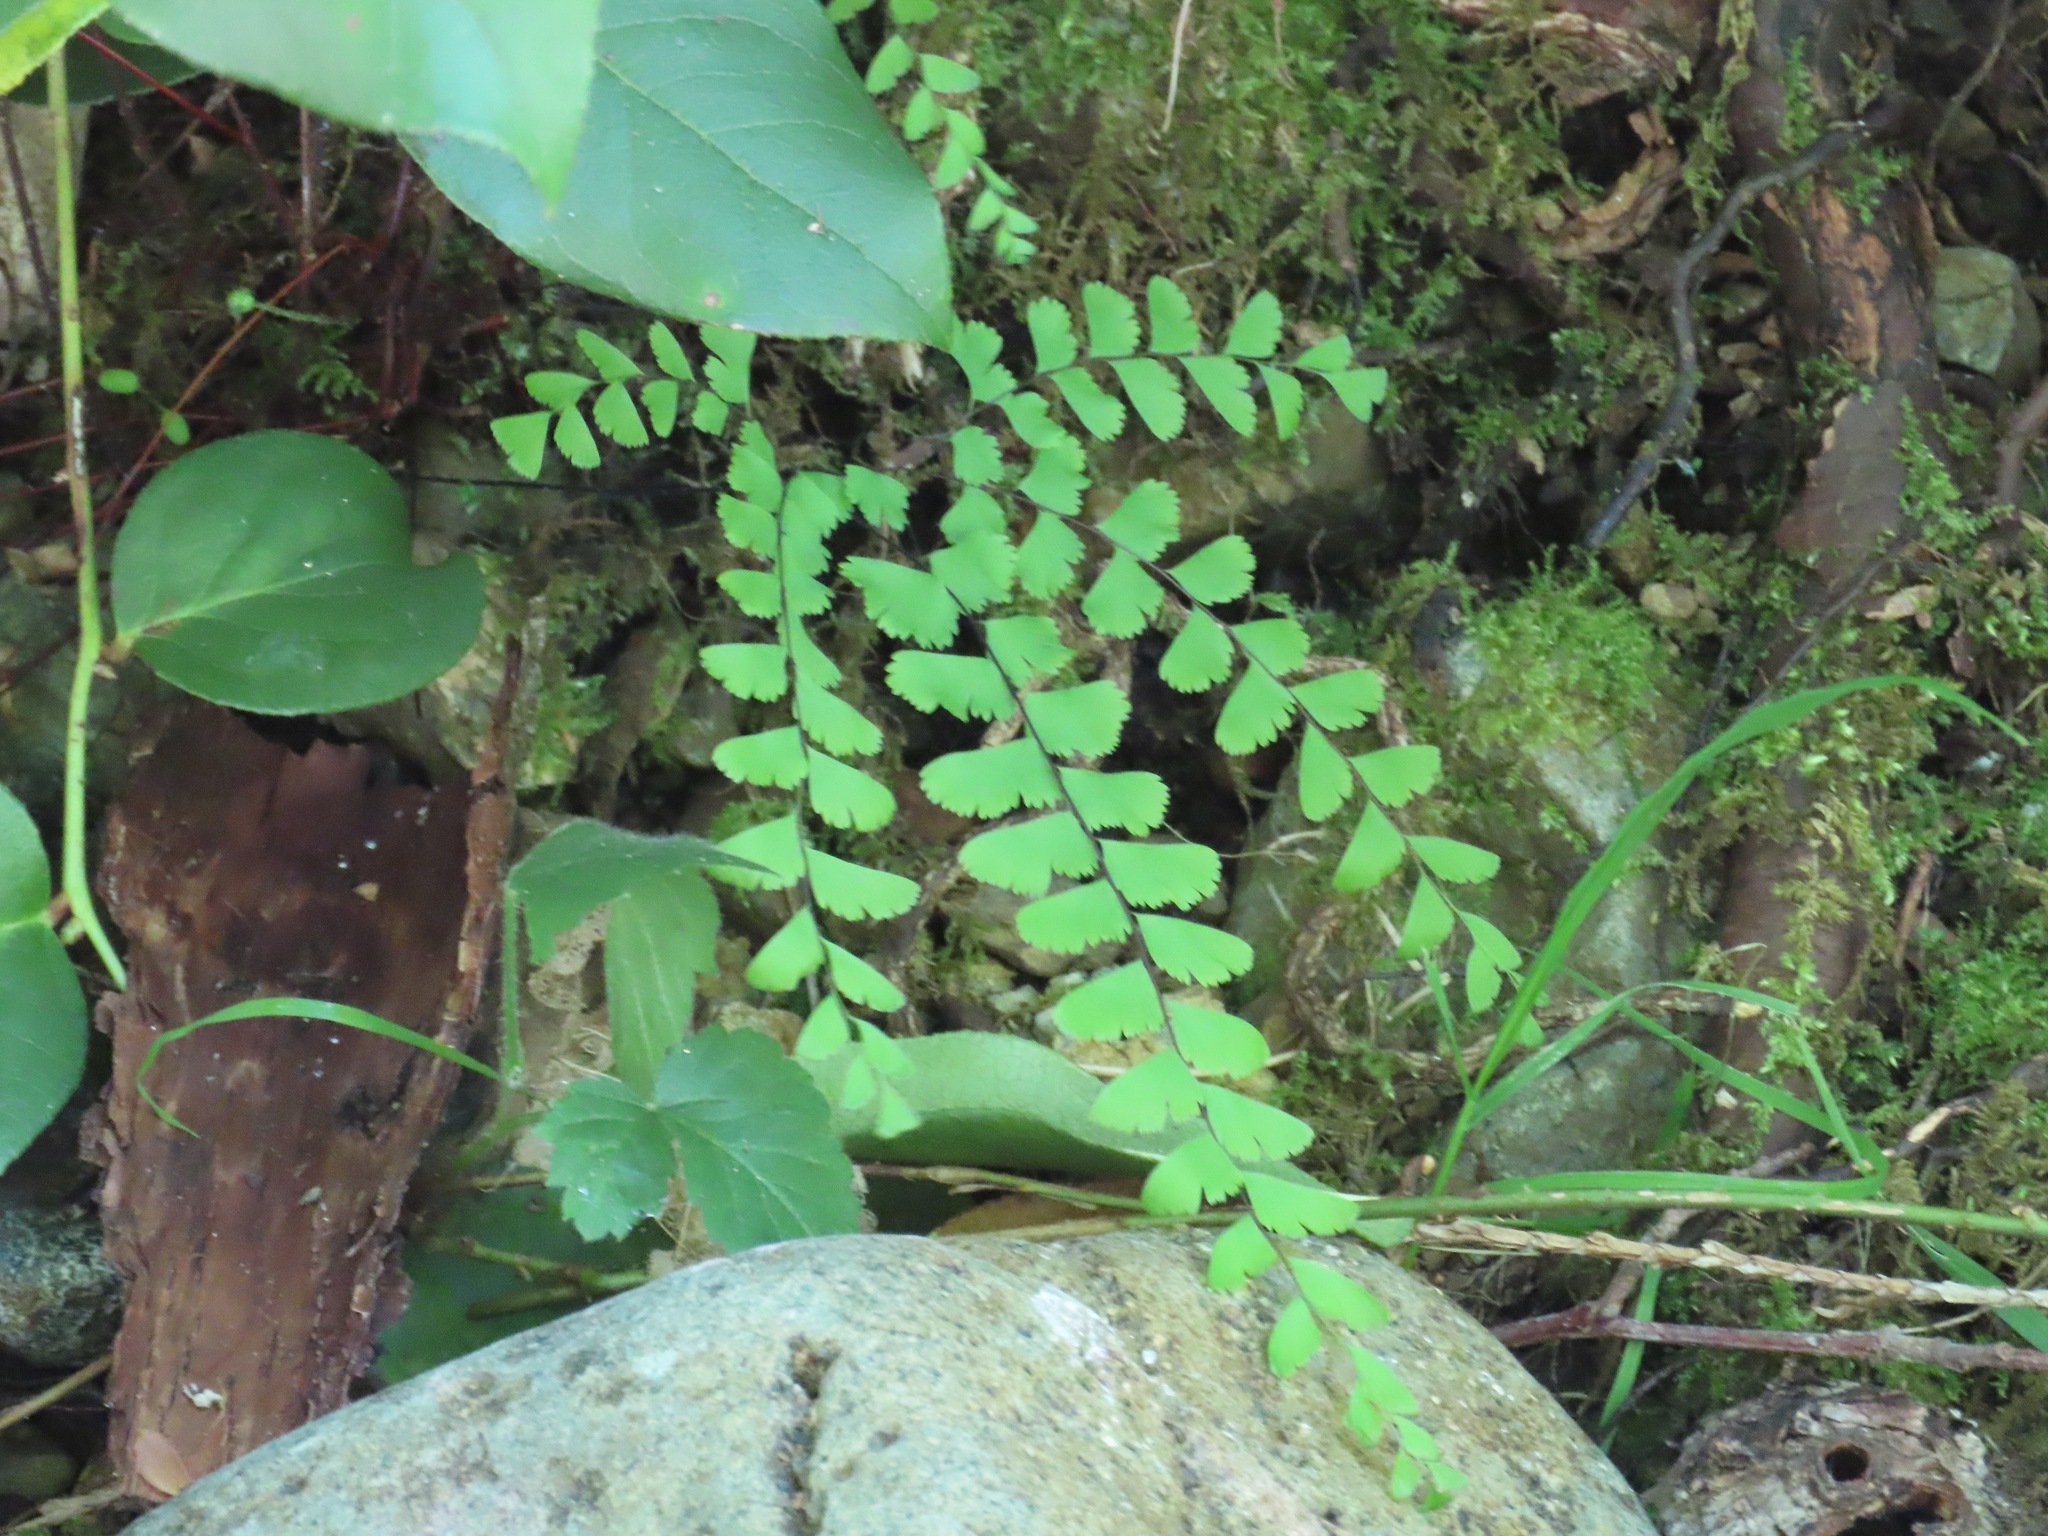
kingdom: Plantae
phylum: Tracheophyta
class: Polypodiopsida
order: Polypodiales
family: Pteridaceae
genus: Adiantum
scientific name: Adiantum aleuticum
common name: Aleutian maidenhair fern
